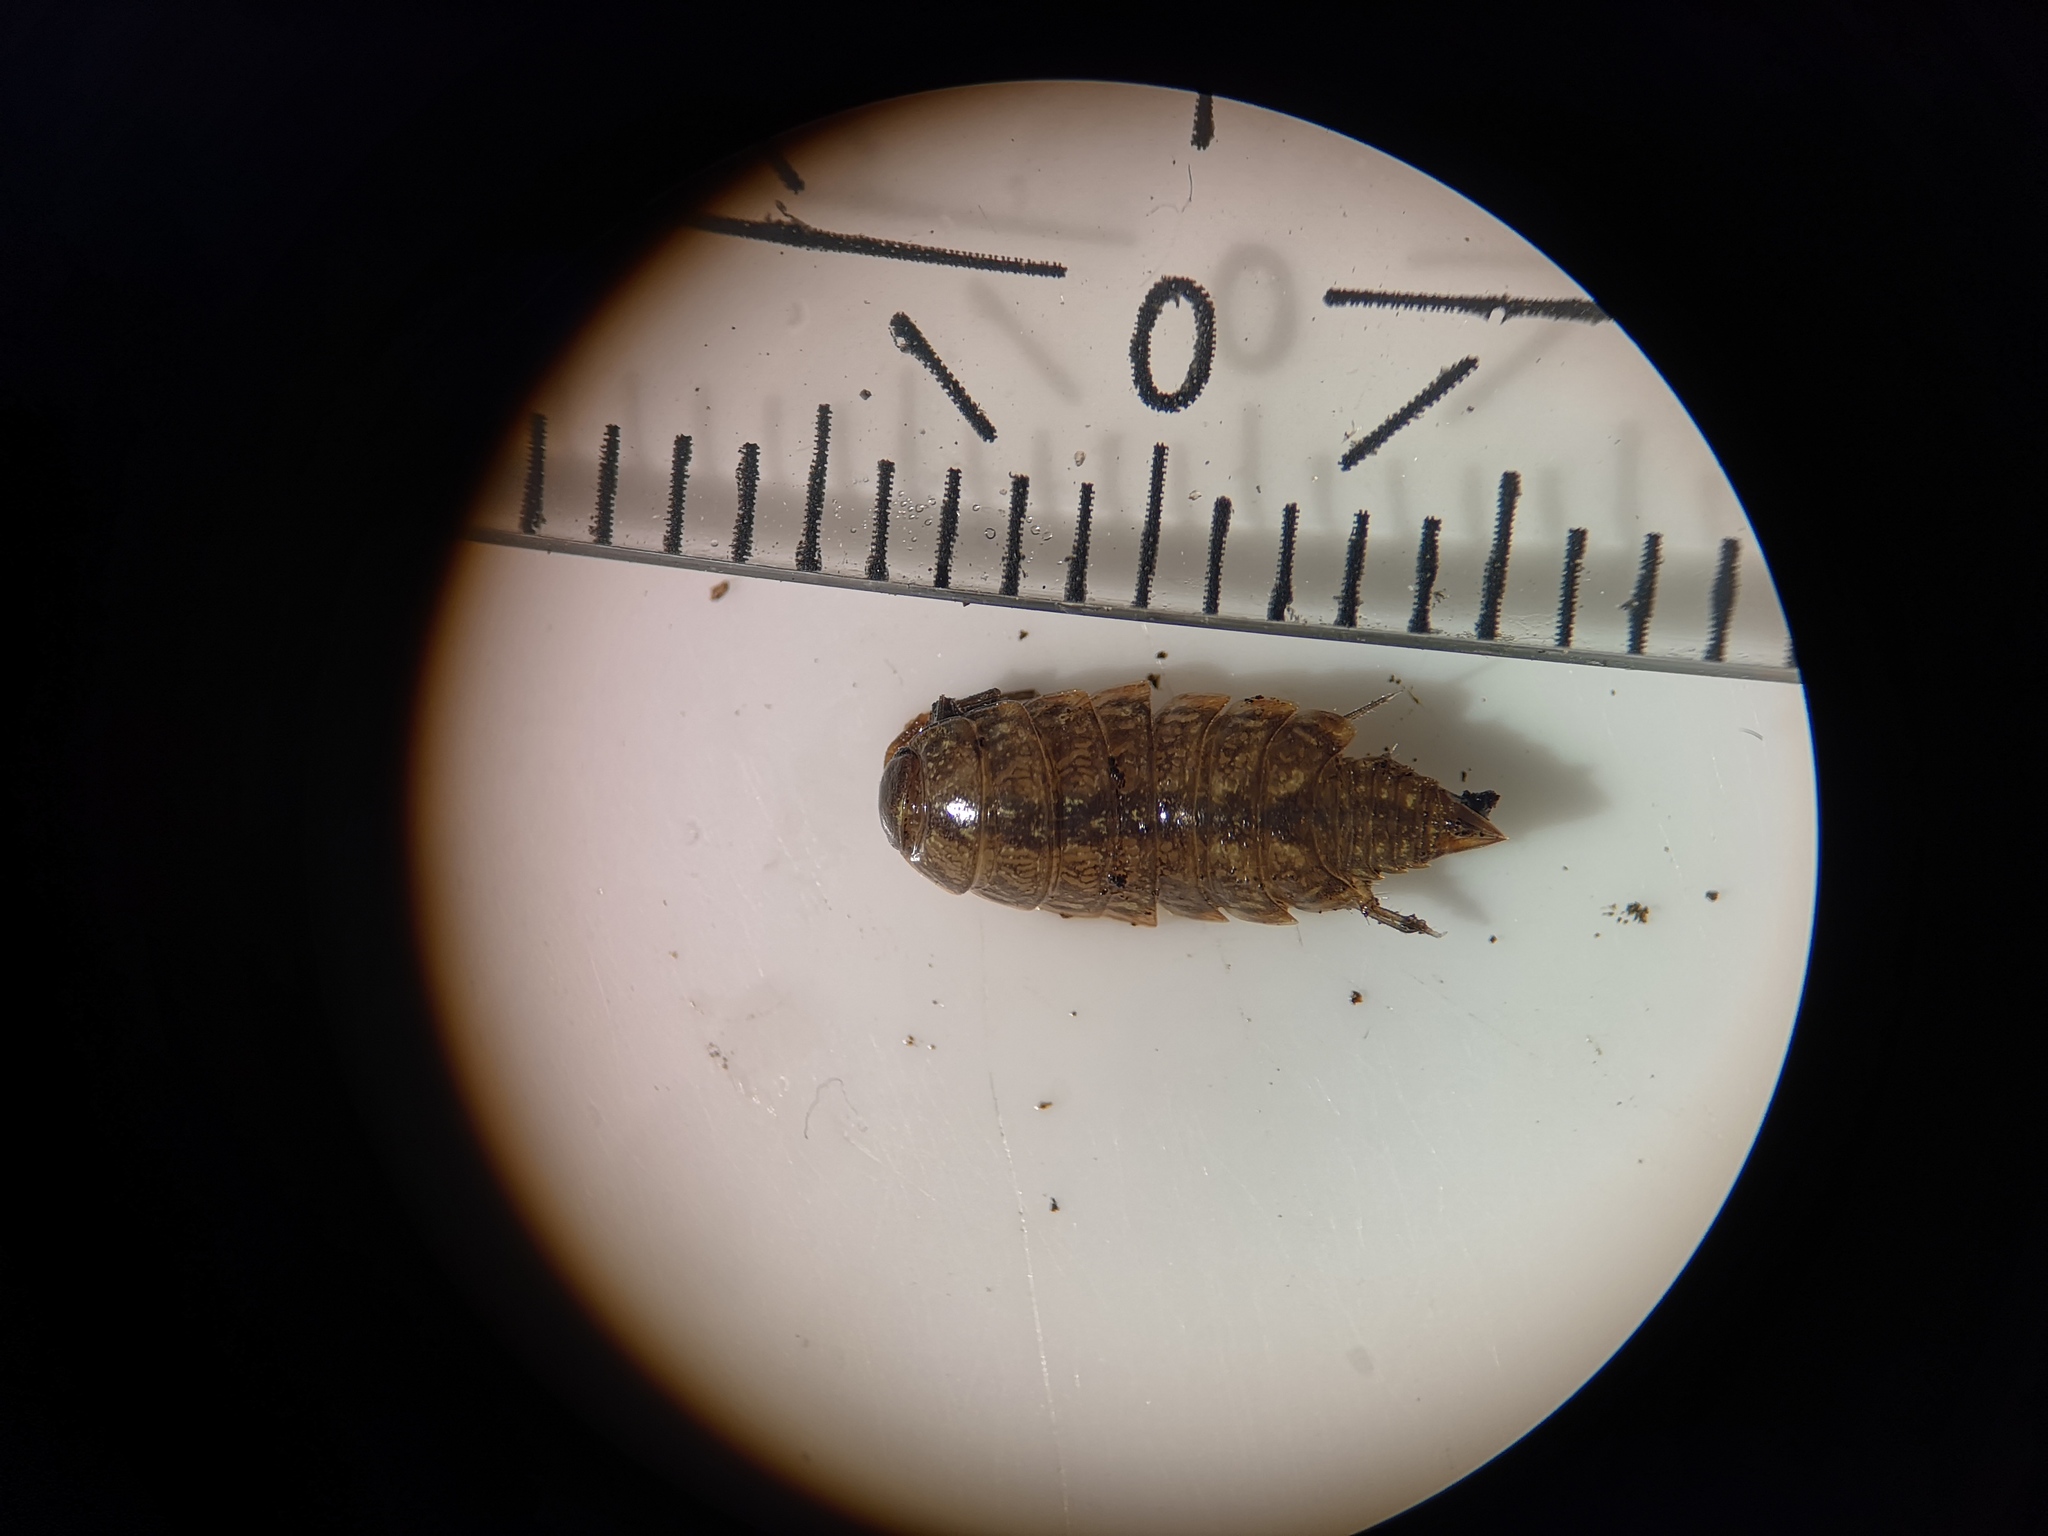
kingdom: Animalia
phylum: Arthropoda
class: Malacostraca
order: Isopoda
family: Philosciidae
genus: Philoscia
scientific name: Philoscia muscorum
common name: Common striped woodlouse
